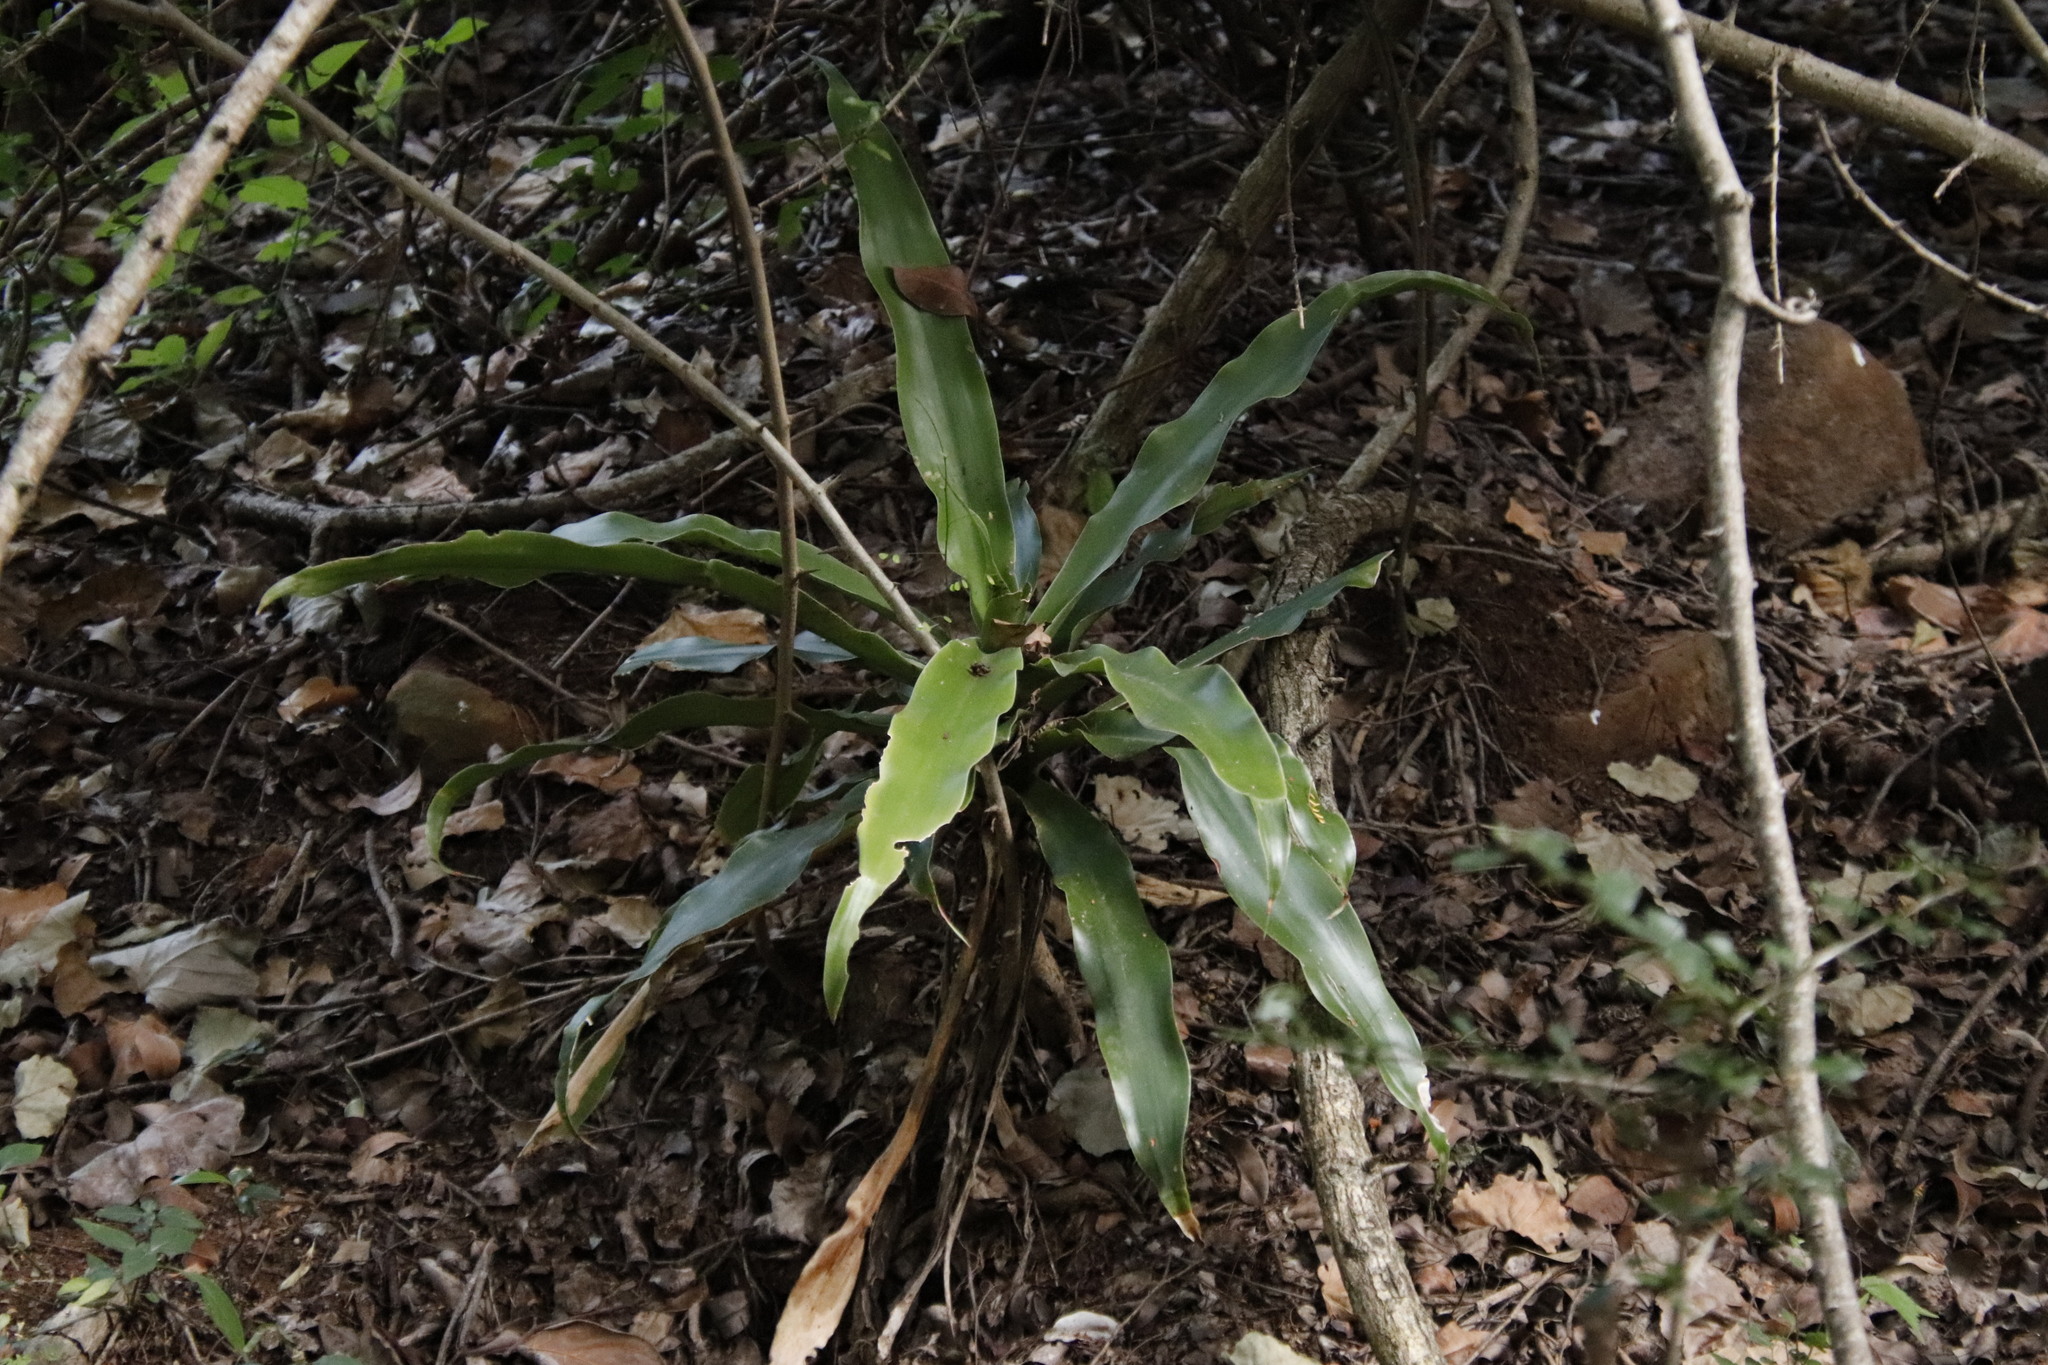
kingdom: Plantae
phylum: Tracheophyta
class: Liliopsida
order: Asparagales
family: Asparagaceae
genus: Dracaena
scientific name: Dracaena aletriformis
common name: Large-leaved dragon tree
